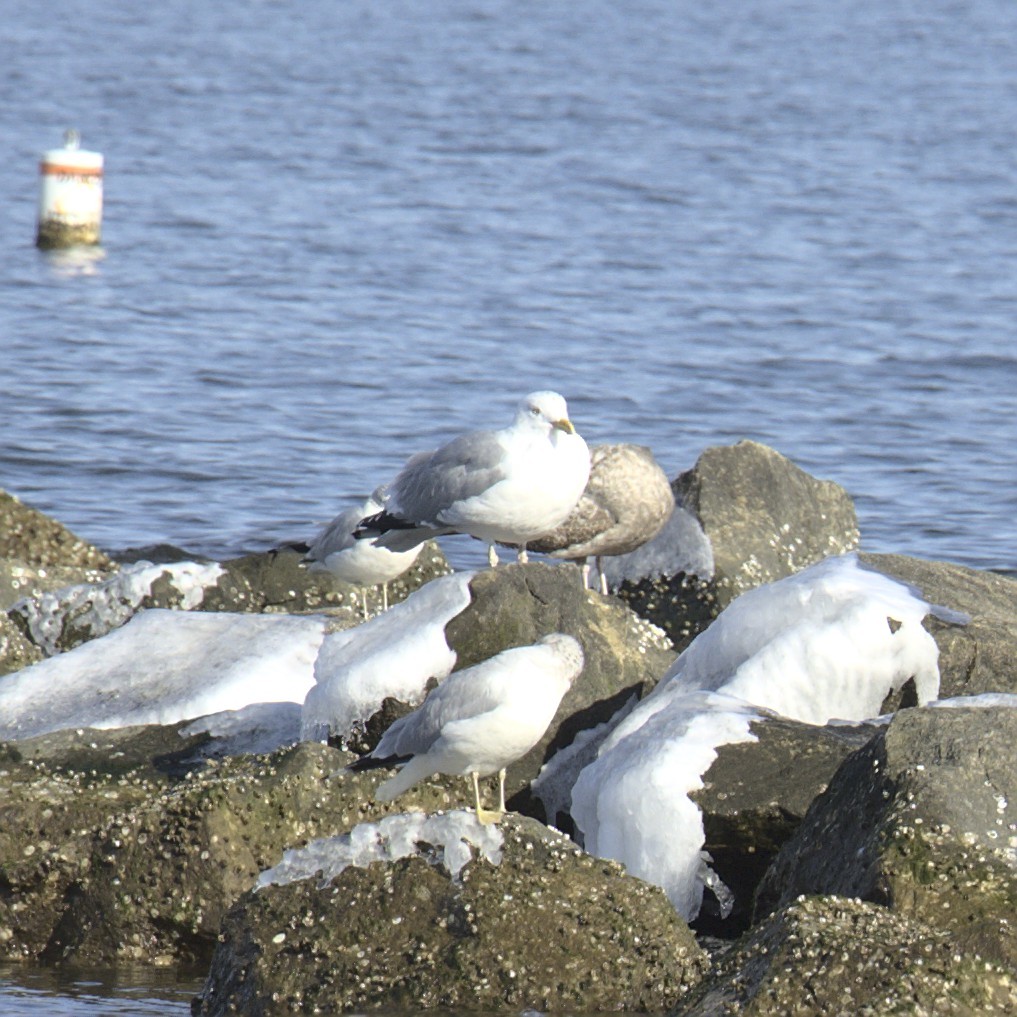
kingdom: Animalia
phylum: Chordata
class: Aves
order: Charadriiformes
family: Laridae
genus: Larus
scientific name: Larus argentatus
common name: Herring gull
